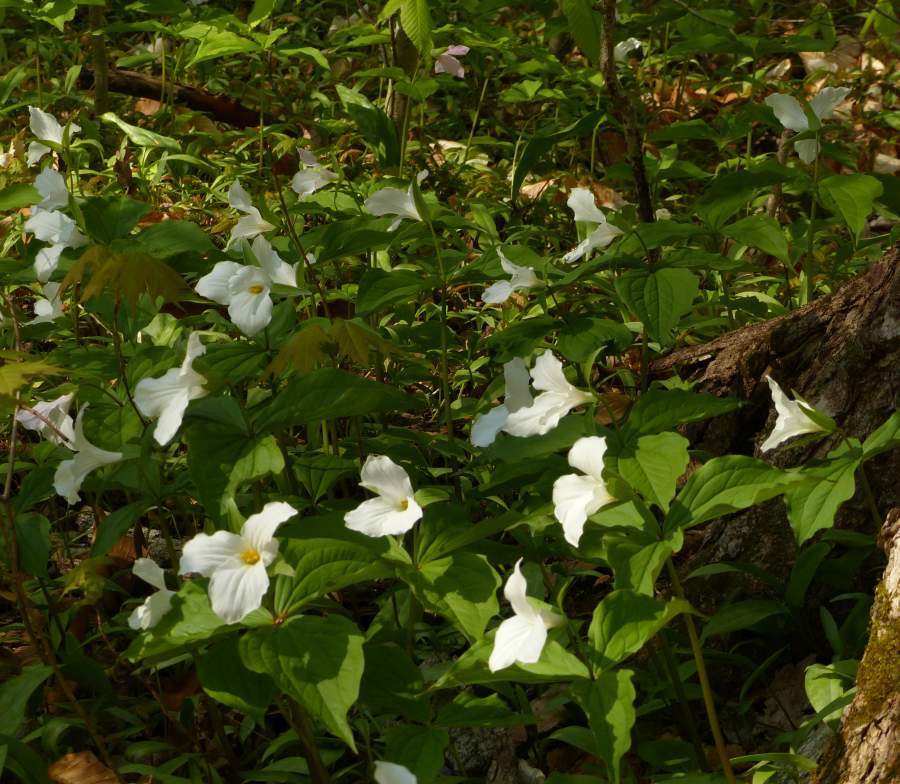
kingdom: Plantae
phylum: Tracheophyta
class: Liliopsida
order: Liliales
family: Melanthiaceae
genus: Trillium
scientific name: Trillium grandiflorum
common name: Great white trillium
